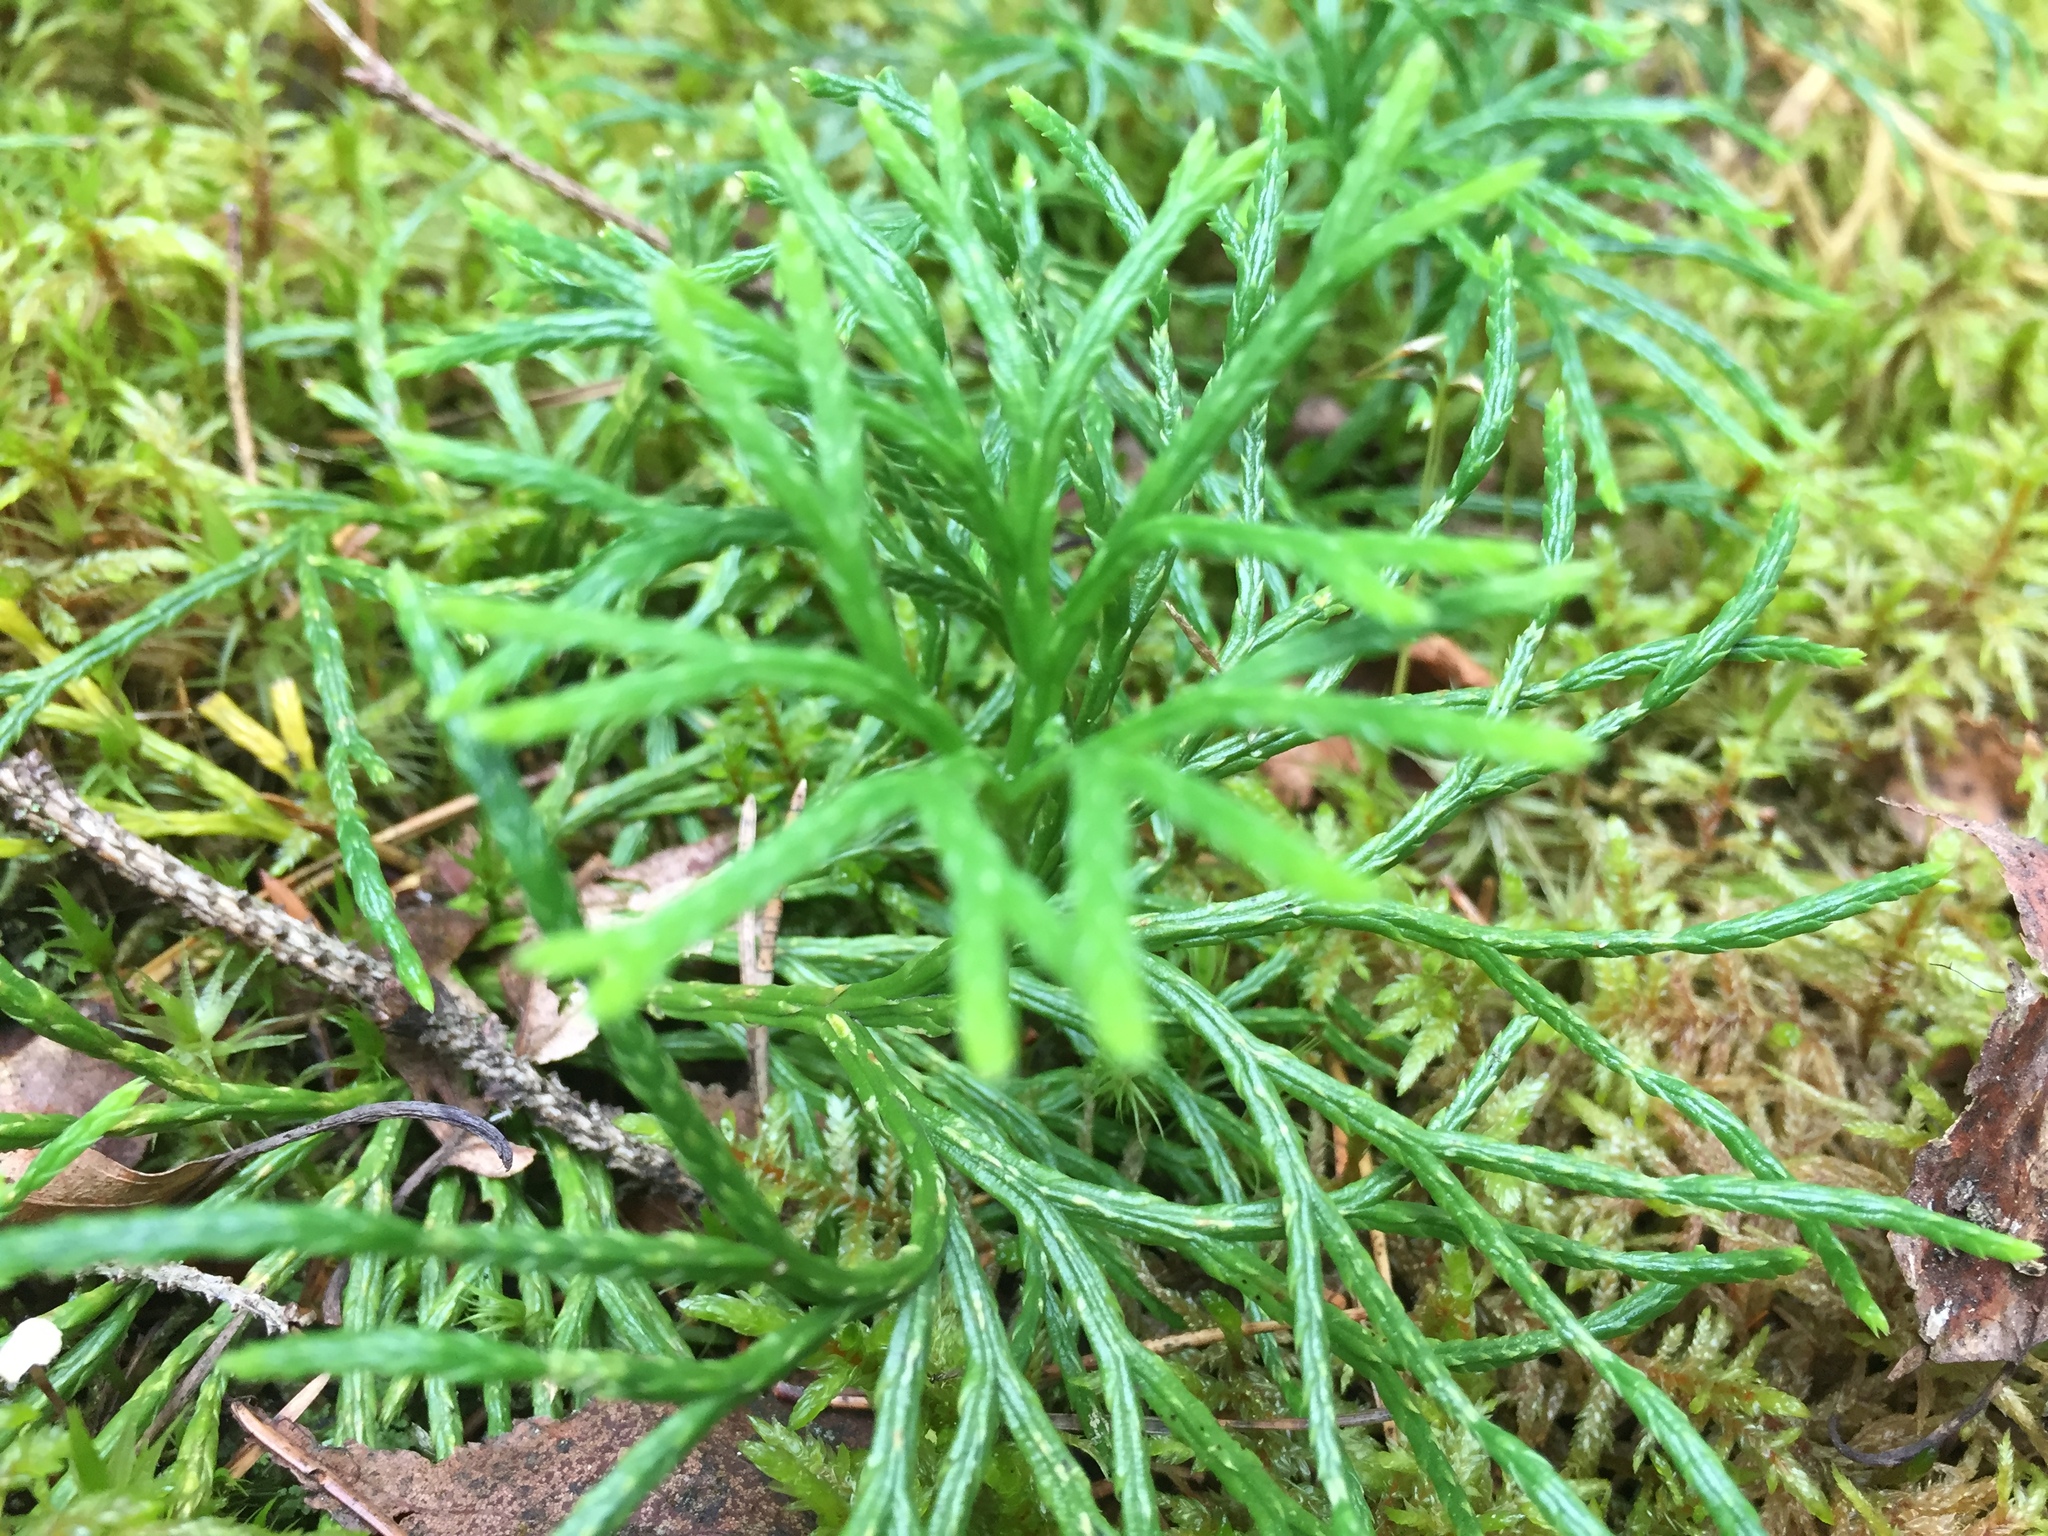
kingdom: Plantae
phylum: Tracheophyta
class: Lycopodiopsida
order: Lycopodiales
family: Lycopodiaceae
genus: Diphasiastrum
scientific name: Diphasiastrum complanatum
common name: Northern running-pine
